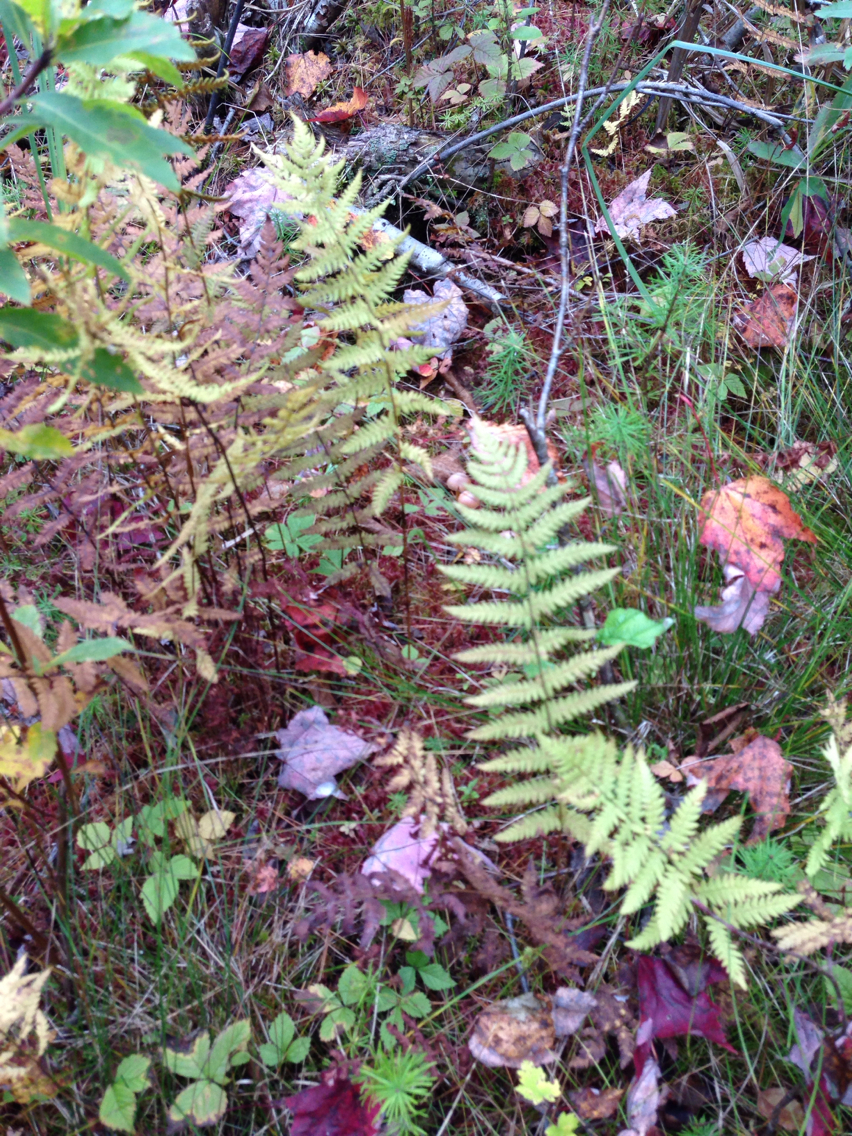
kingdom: Plantae
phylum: Tracheophyta
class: Polypodiopsida
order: Polypodiales
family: Thelypteridaceae
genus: Thelypteris
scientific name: Thelypteris palustris
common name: Marsh fern
